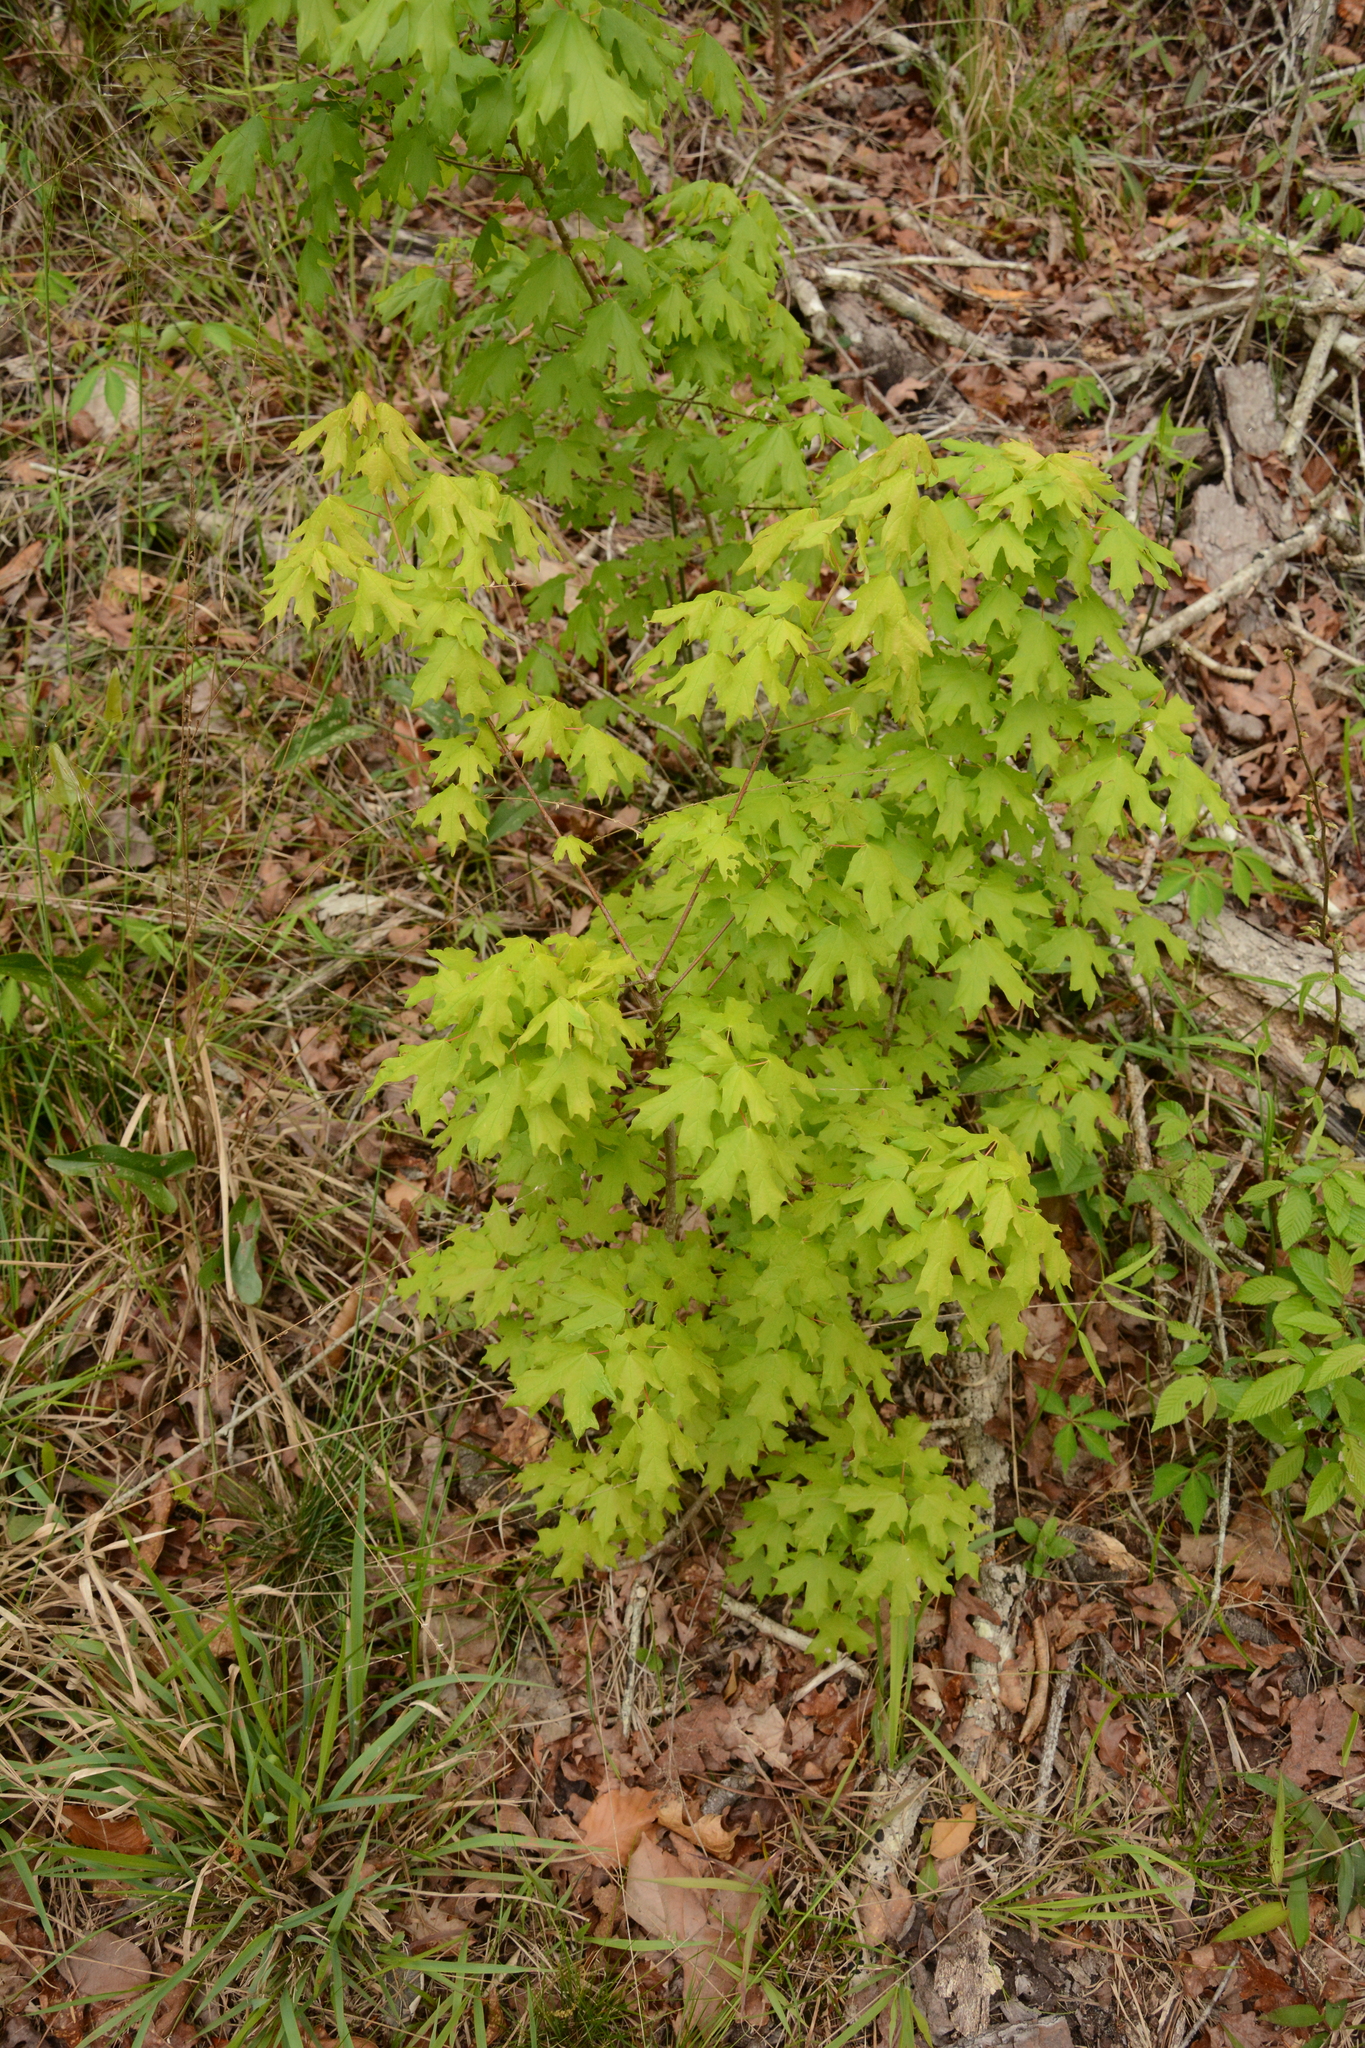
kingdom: Plantae
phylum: Tracheophyta
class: Magnoliopsida
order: Sapindales
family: Sapindaceae
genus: Acer
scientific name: Acer floridanum
